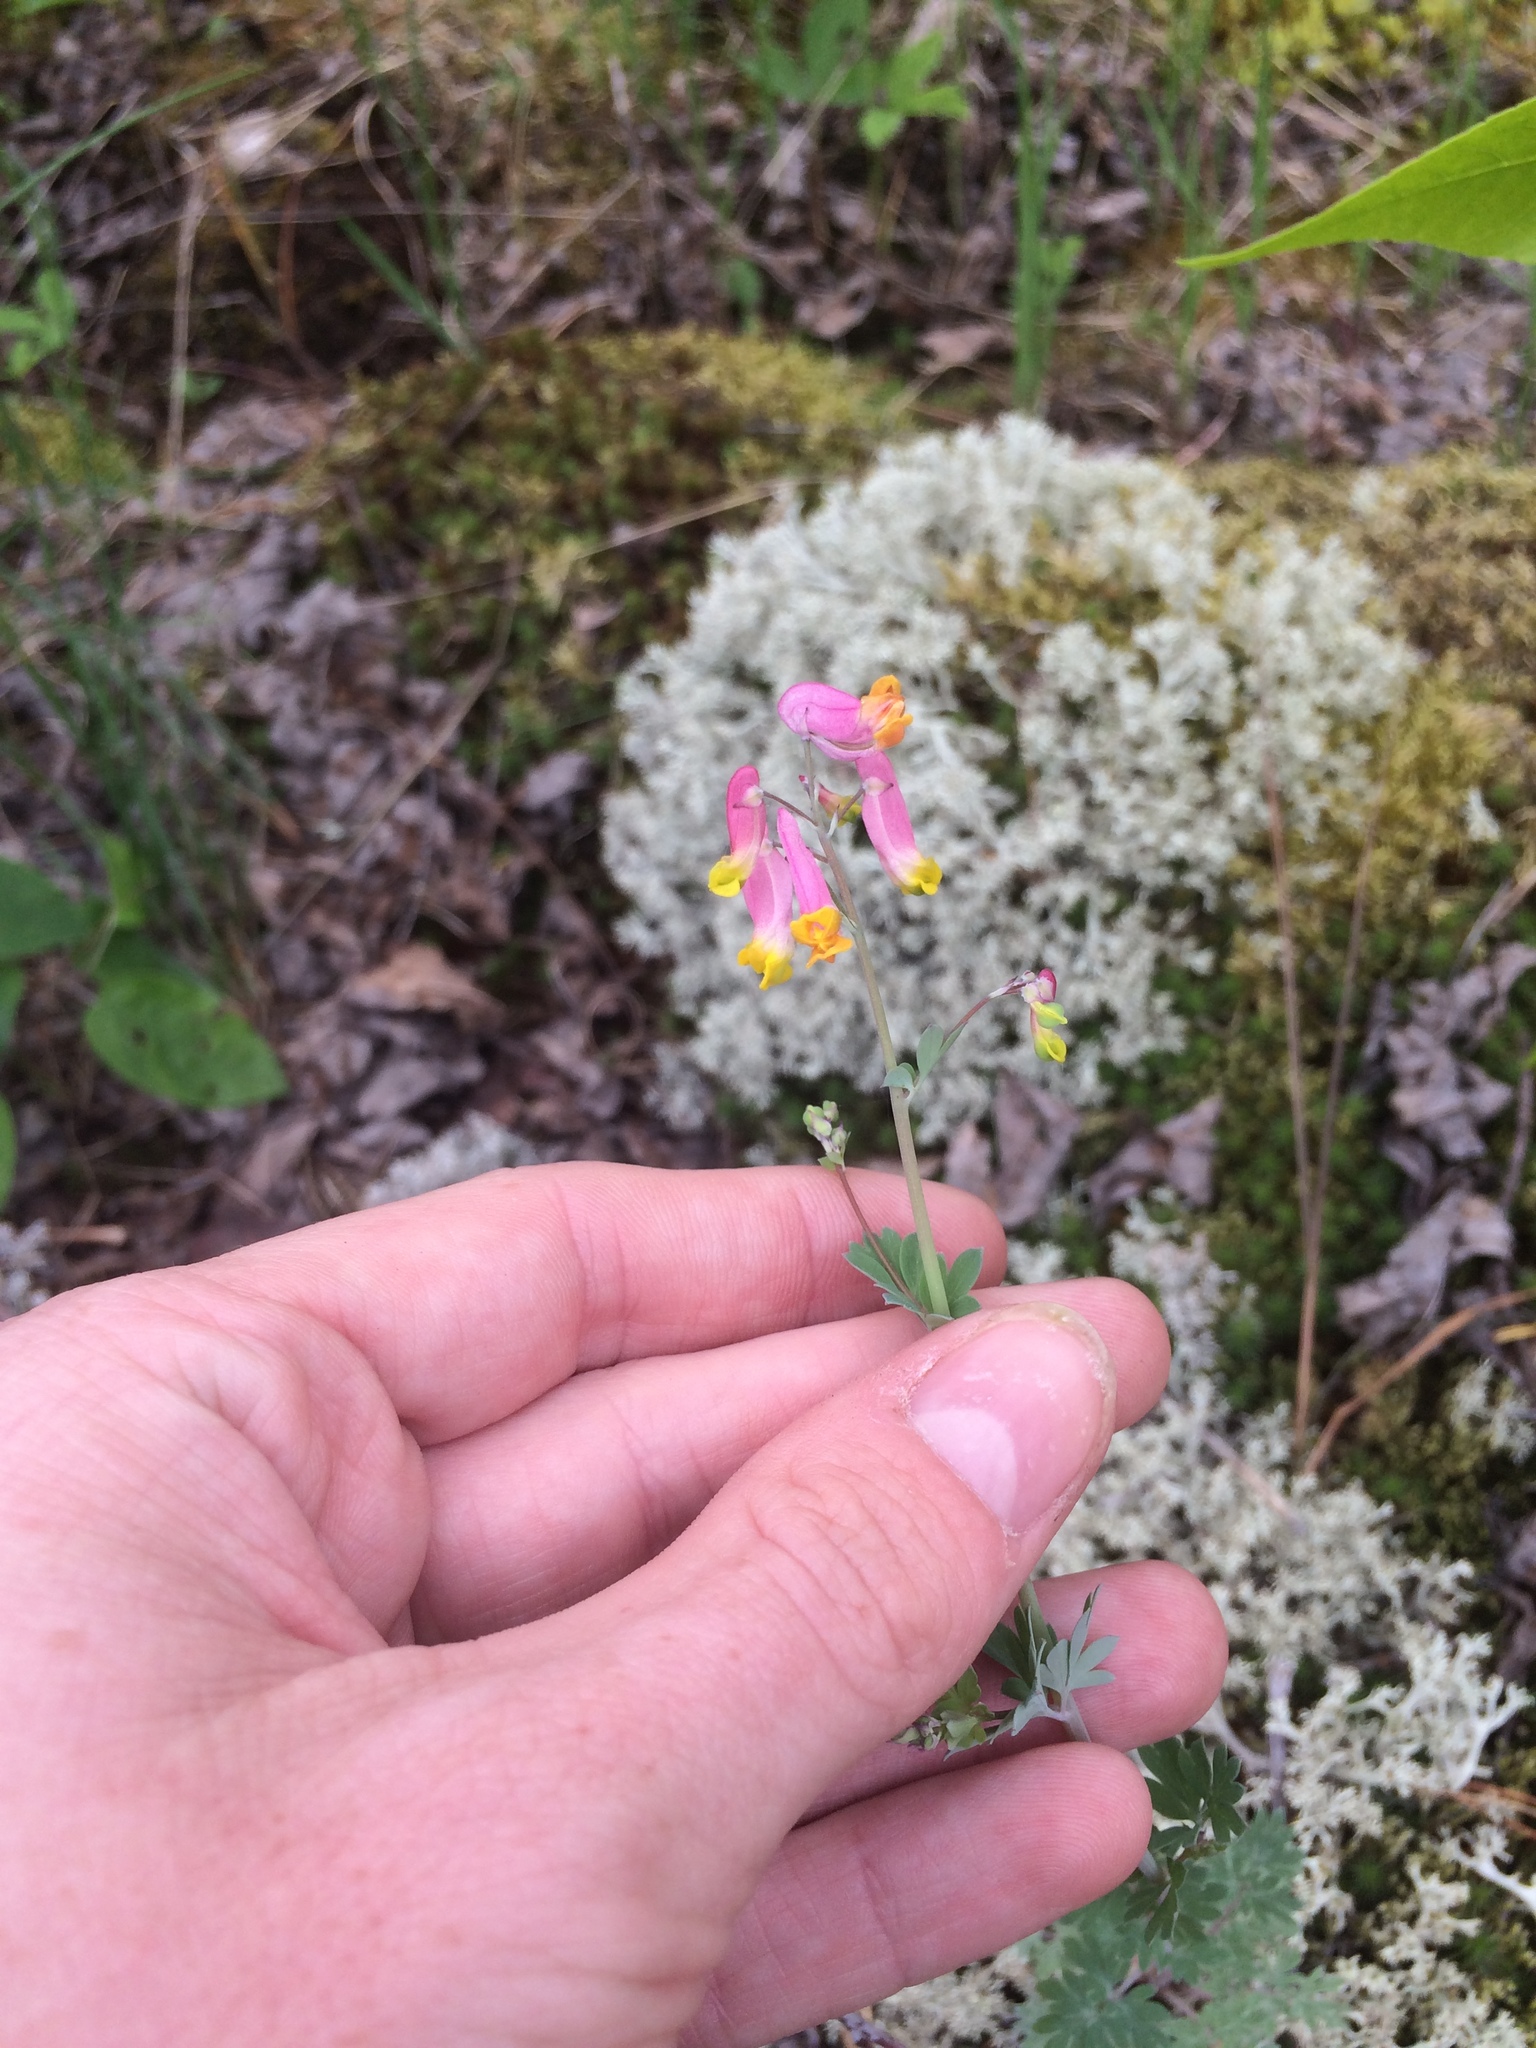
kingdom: Plantae
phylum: Tracheophyta
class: Magnoliopsida
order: Ranunculales
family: Papaveraceae
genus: Capnoides
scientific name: Capnoides sempervirens
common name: Rock harlequin
